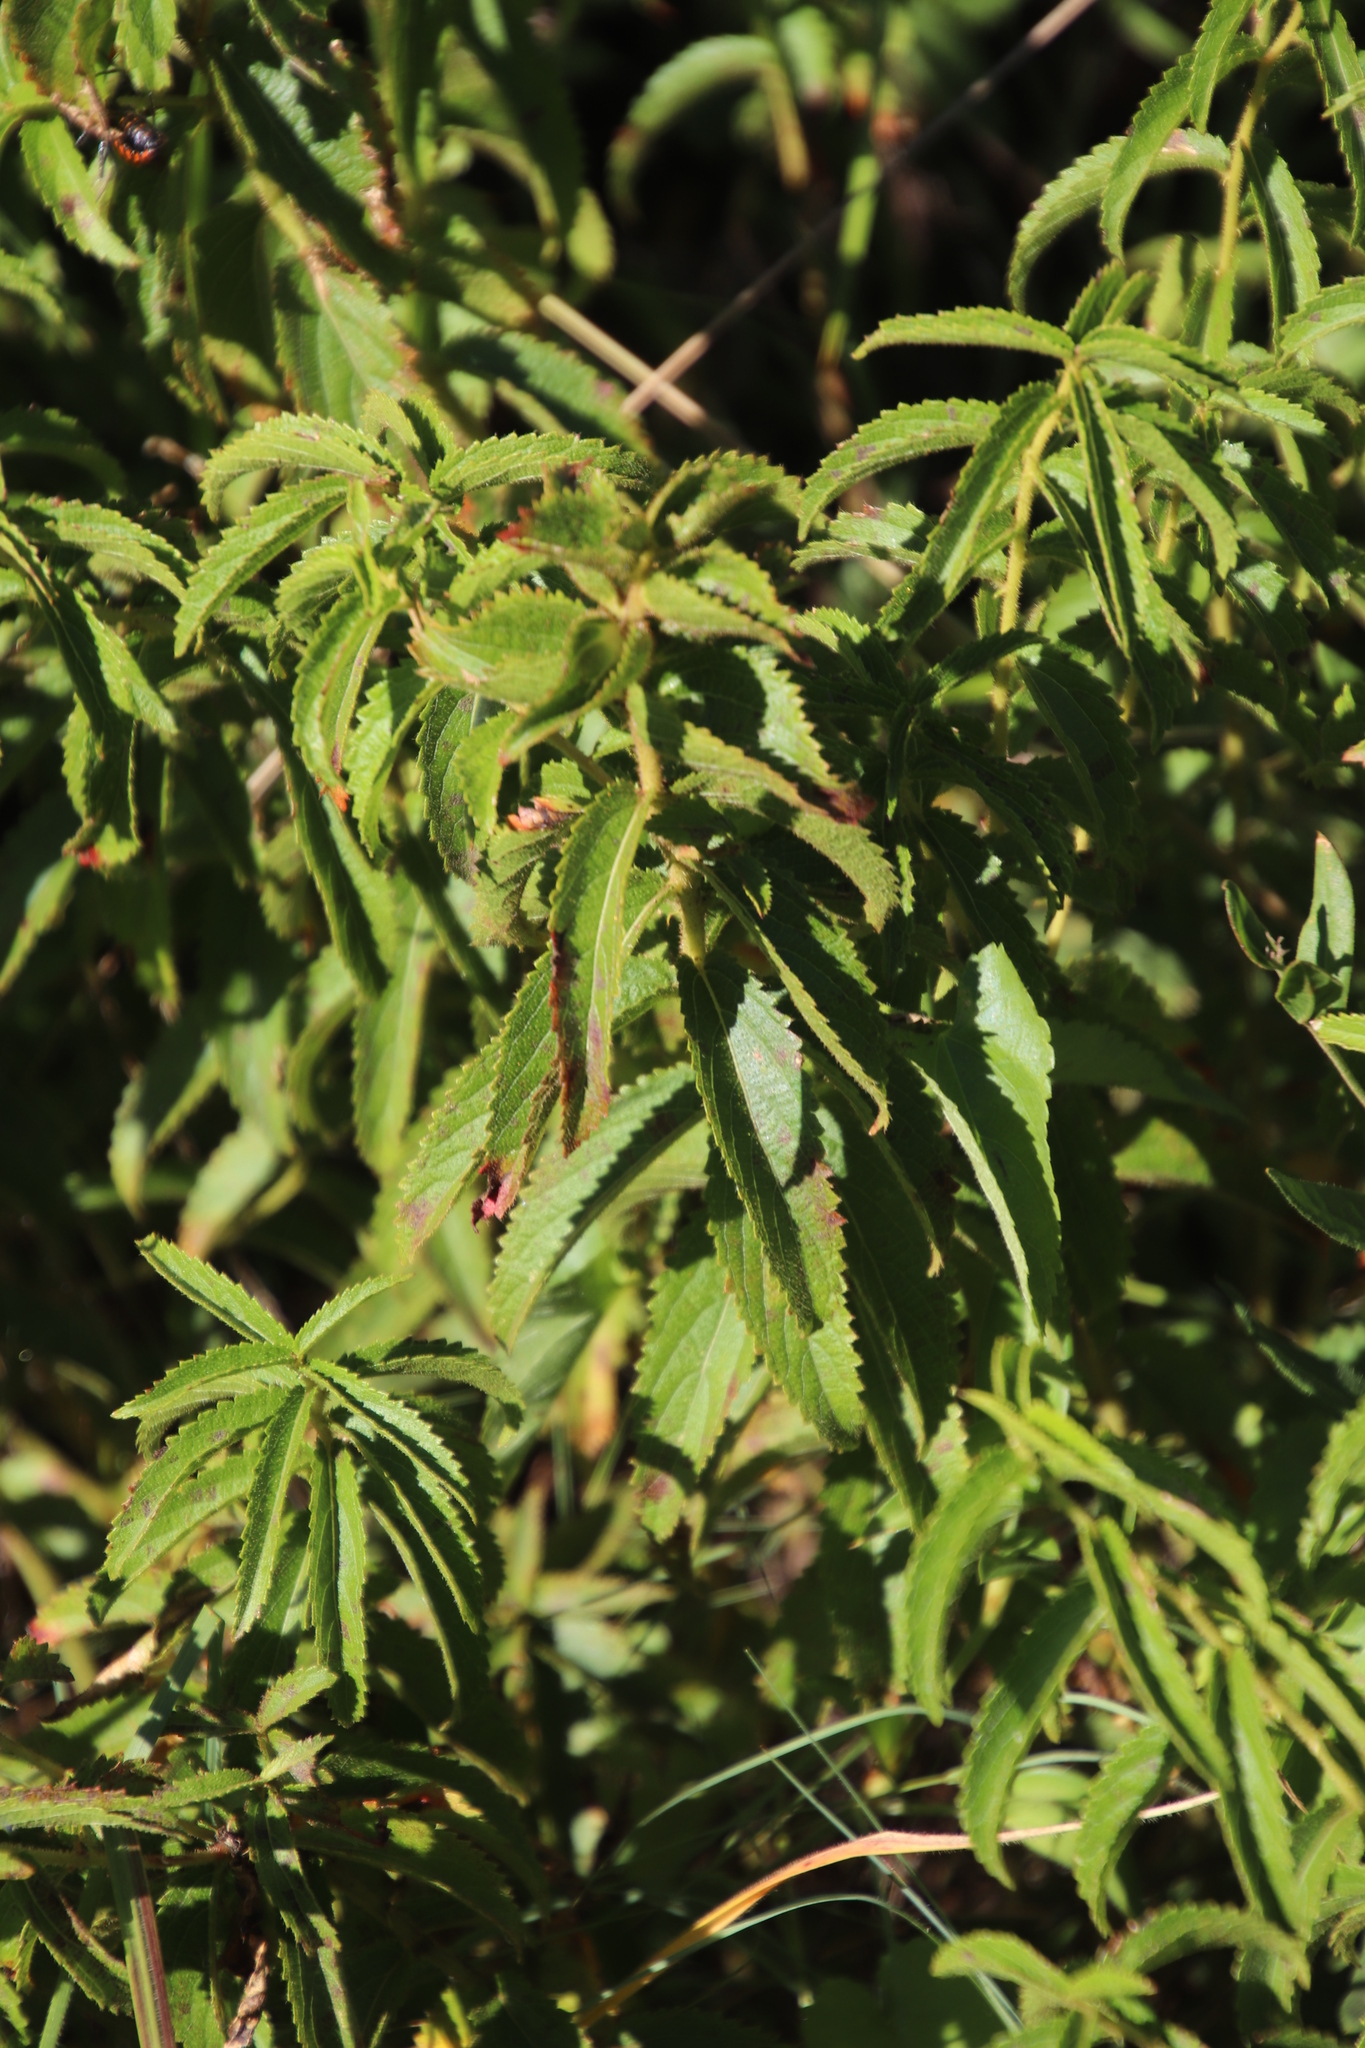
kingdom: Plantae
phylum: Tracheophyta
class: Magnoliopsida
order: Malpighiales
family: Euphorbiaceae
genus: Acalypha
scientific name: Acalypha angustata
